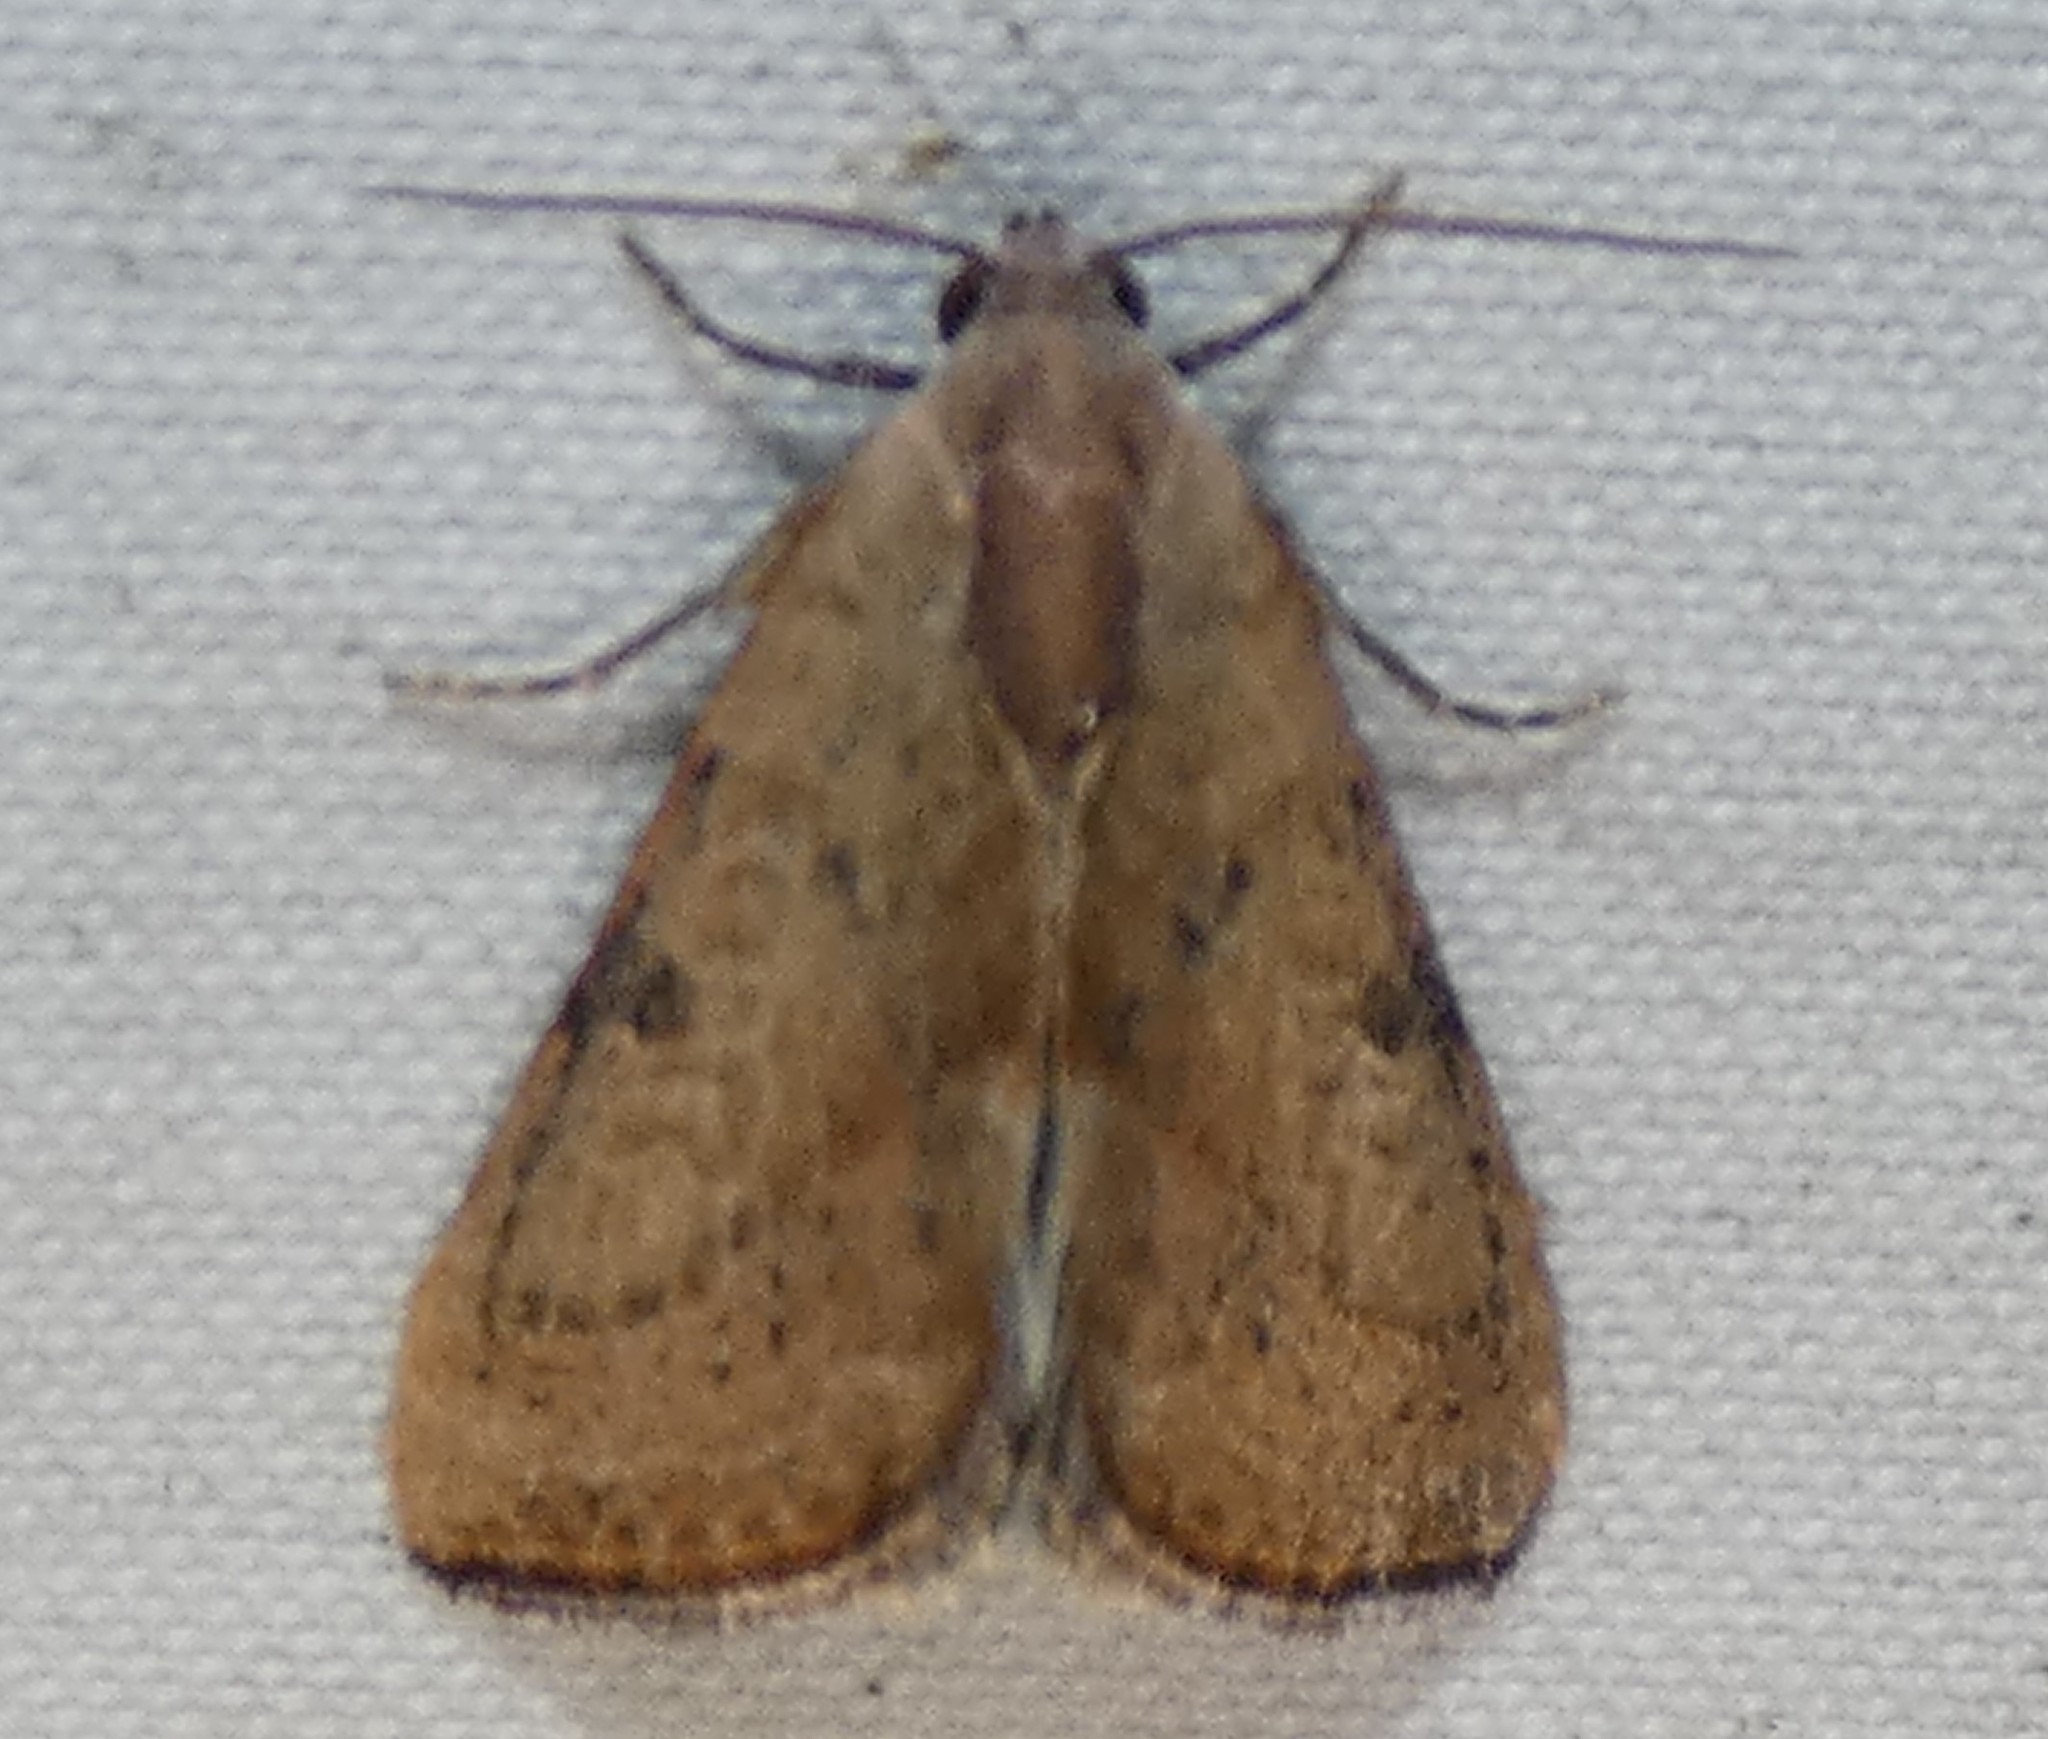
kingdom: Animalia
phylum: Arthropoda
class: Insecta
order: Lepidoptera
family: Noctuidae
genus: Galgula
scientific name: Galgula partita
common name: Wedgeling
